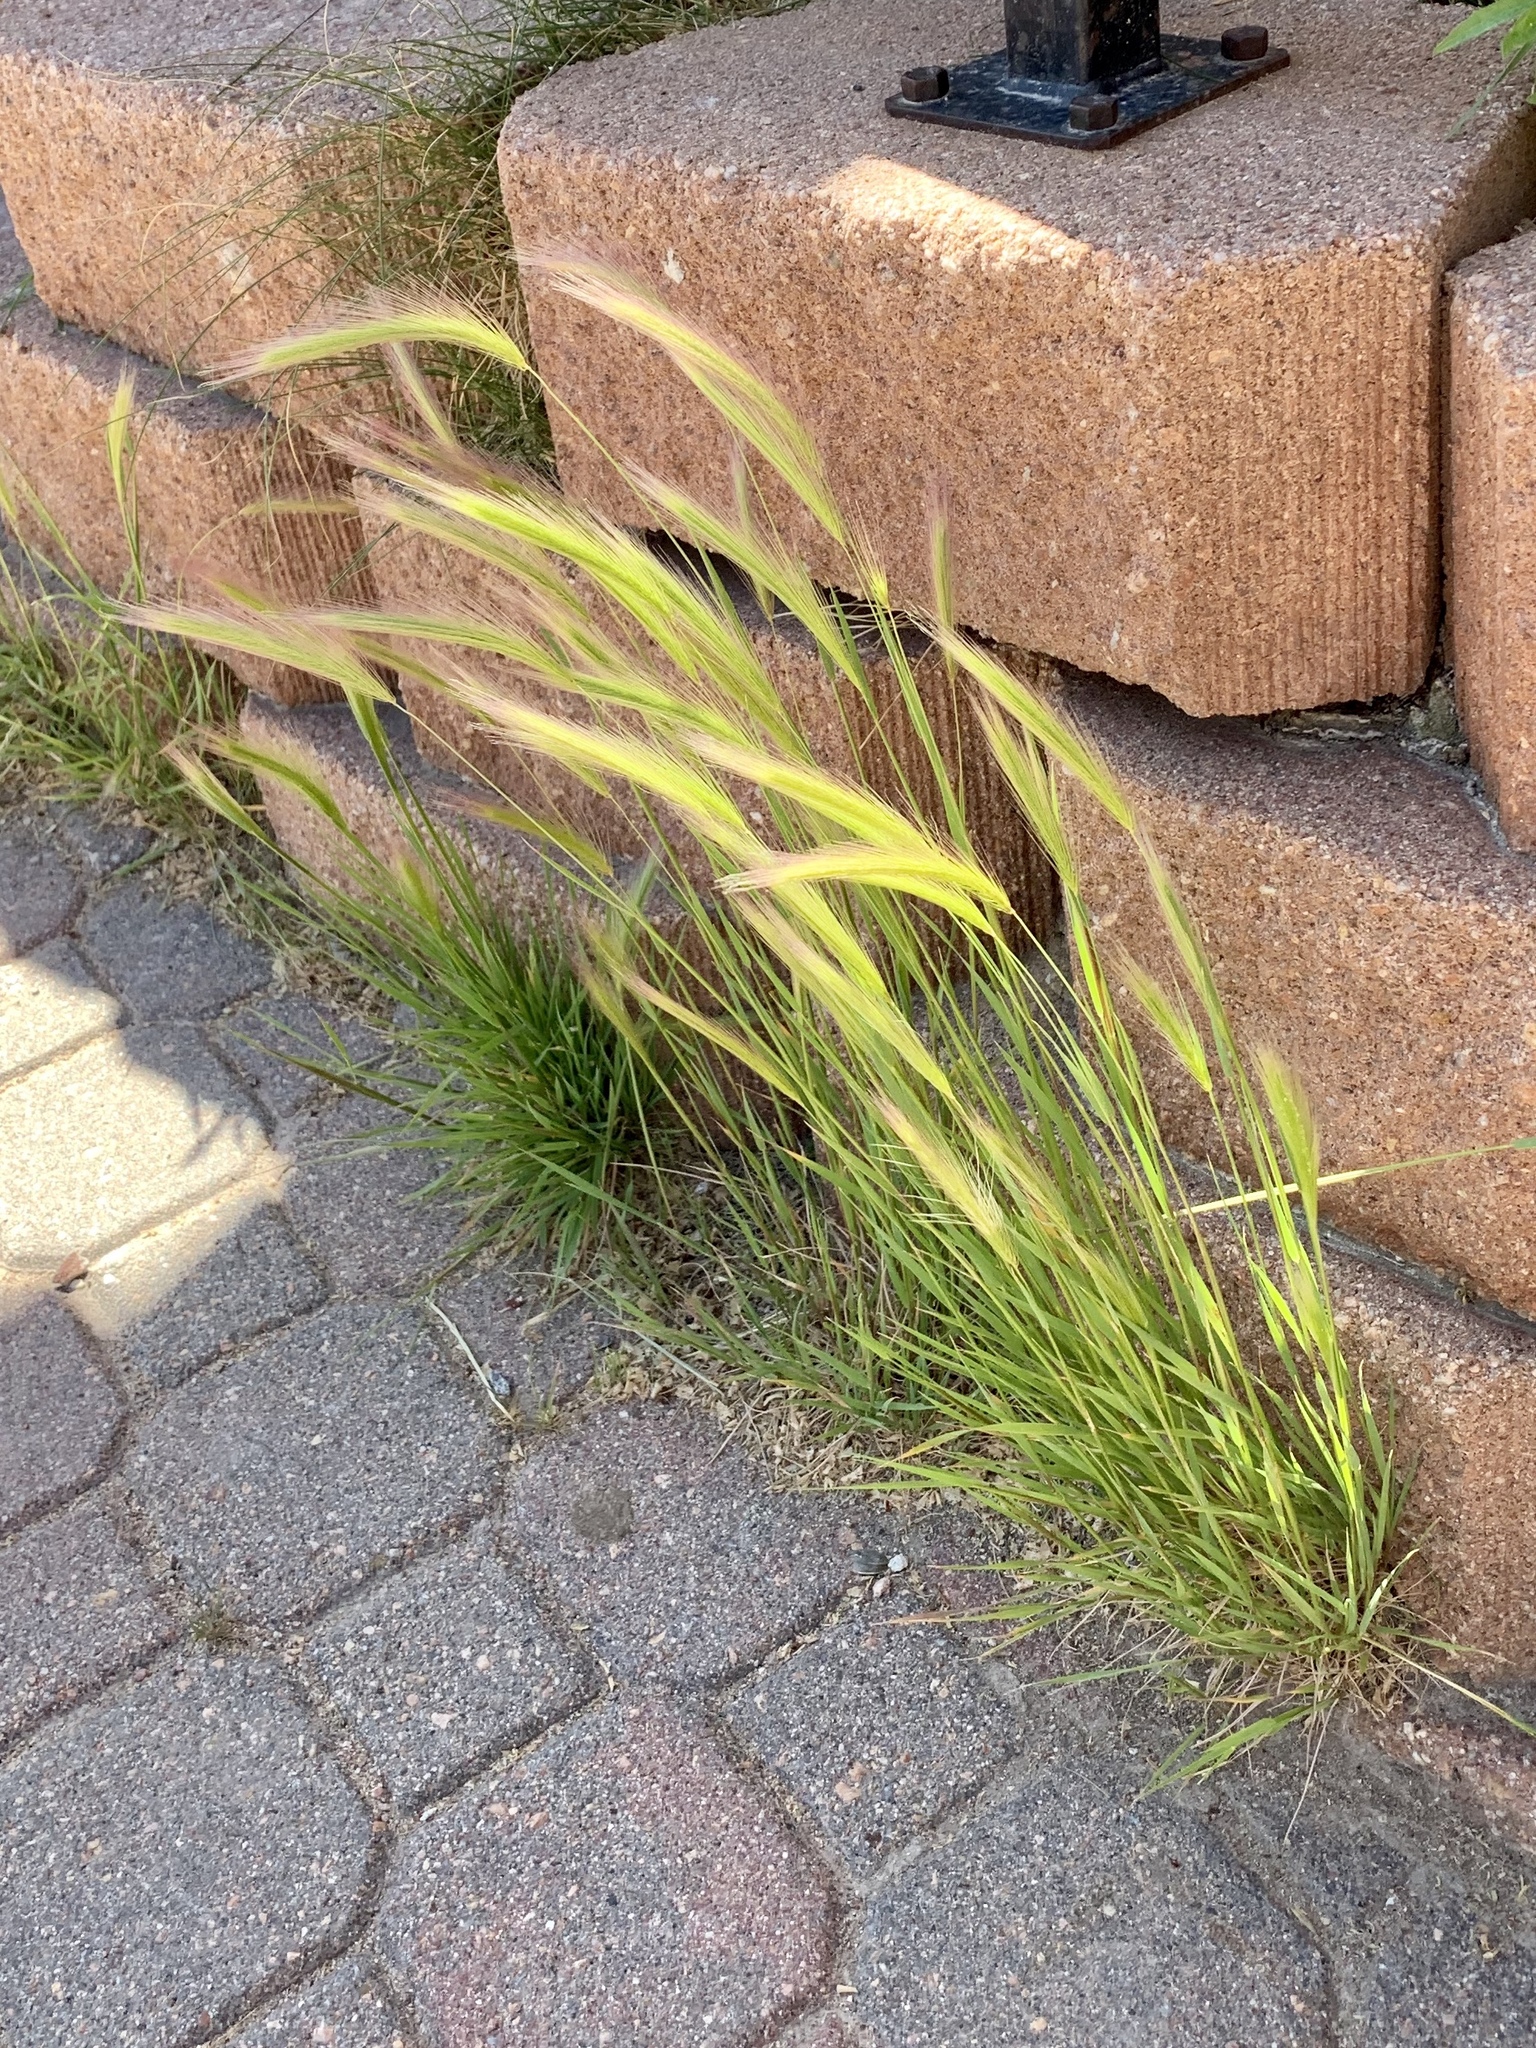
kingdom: Plantae
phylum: Tracheophyta
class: Liliopsida
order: Poales
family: Poaceae
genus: Hordeum
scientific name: Hordeum jubatum
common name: Foxtail barley
